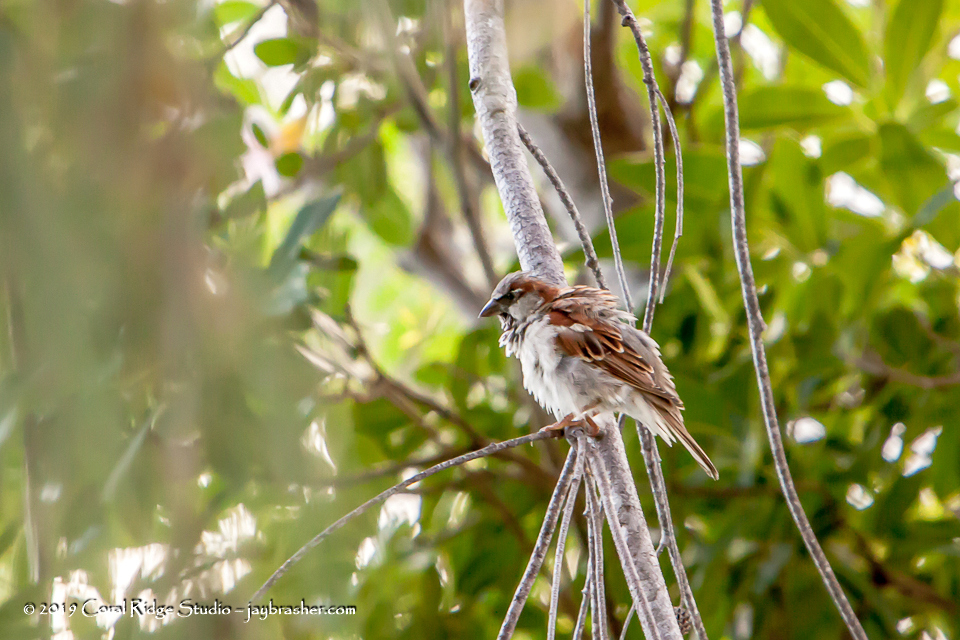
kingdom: Animalia
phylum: Chordata
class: Aves
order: Passeriformes
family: Passeridae
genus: Passer
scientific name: Passer domesticus
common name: House sparrow
